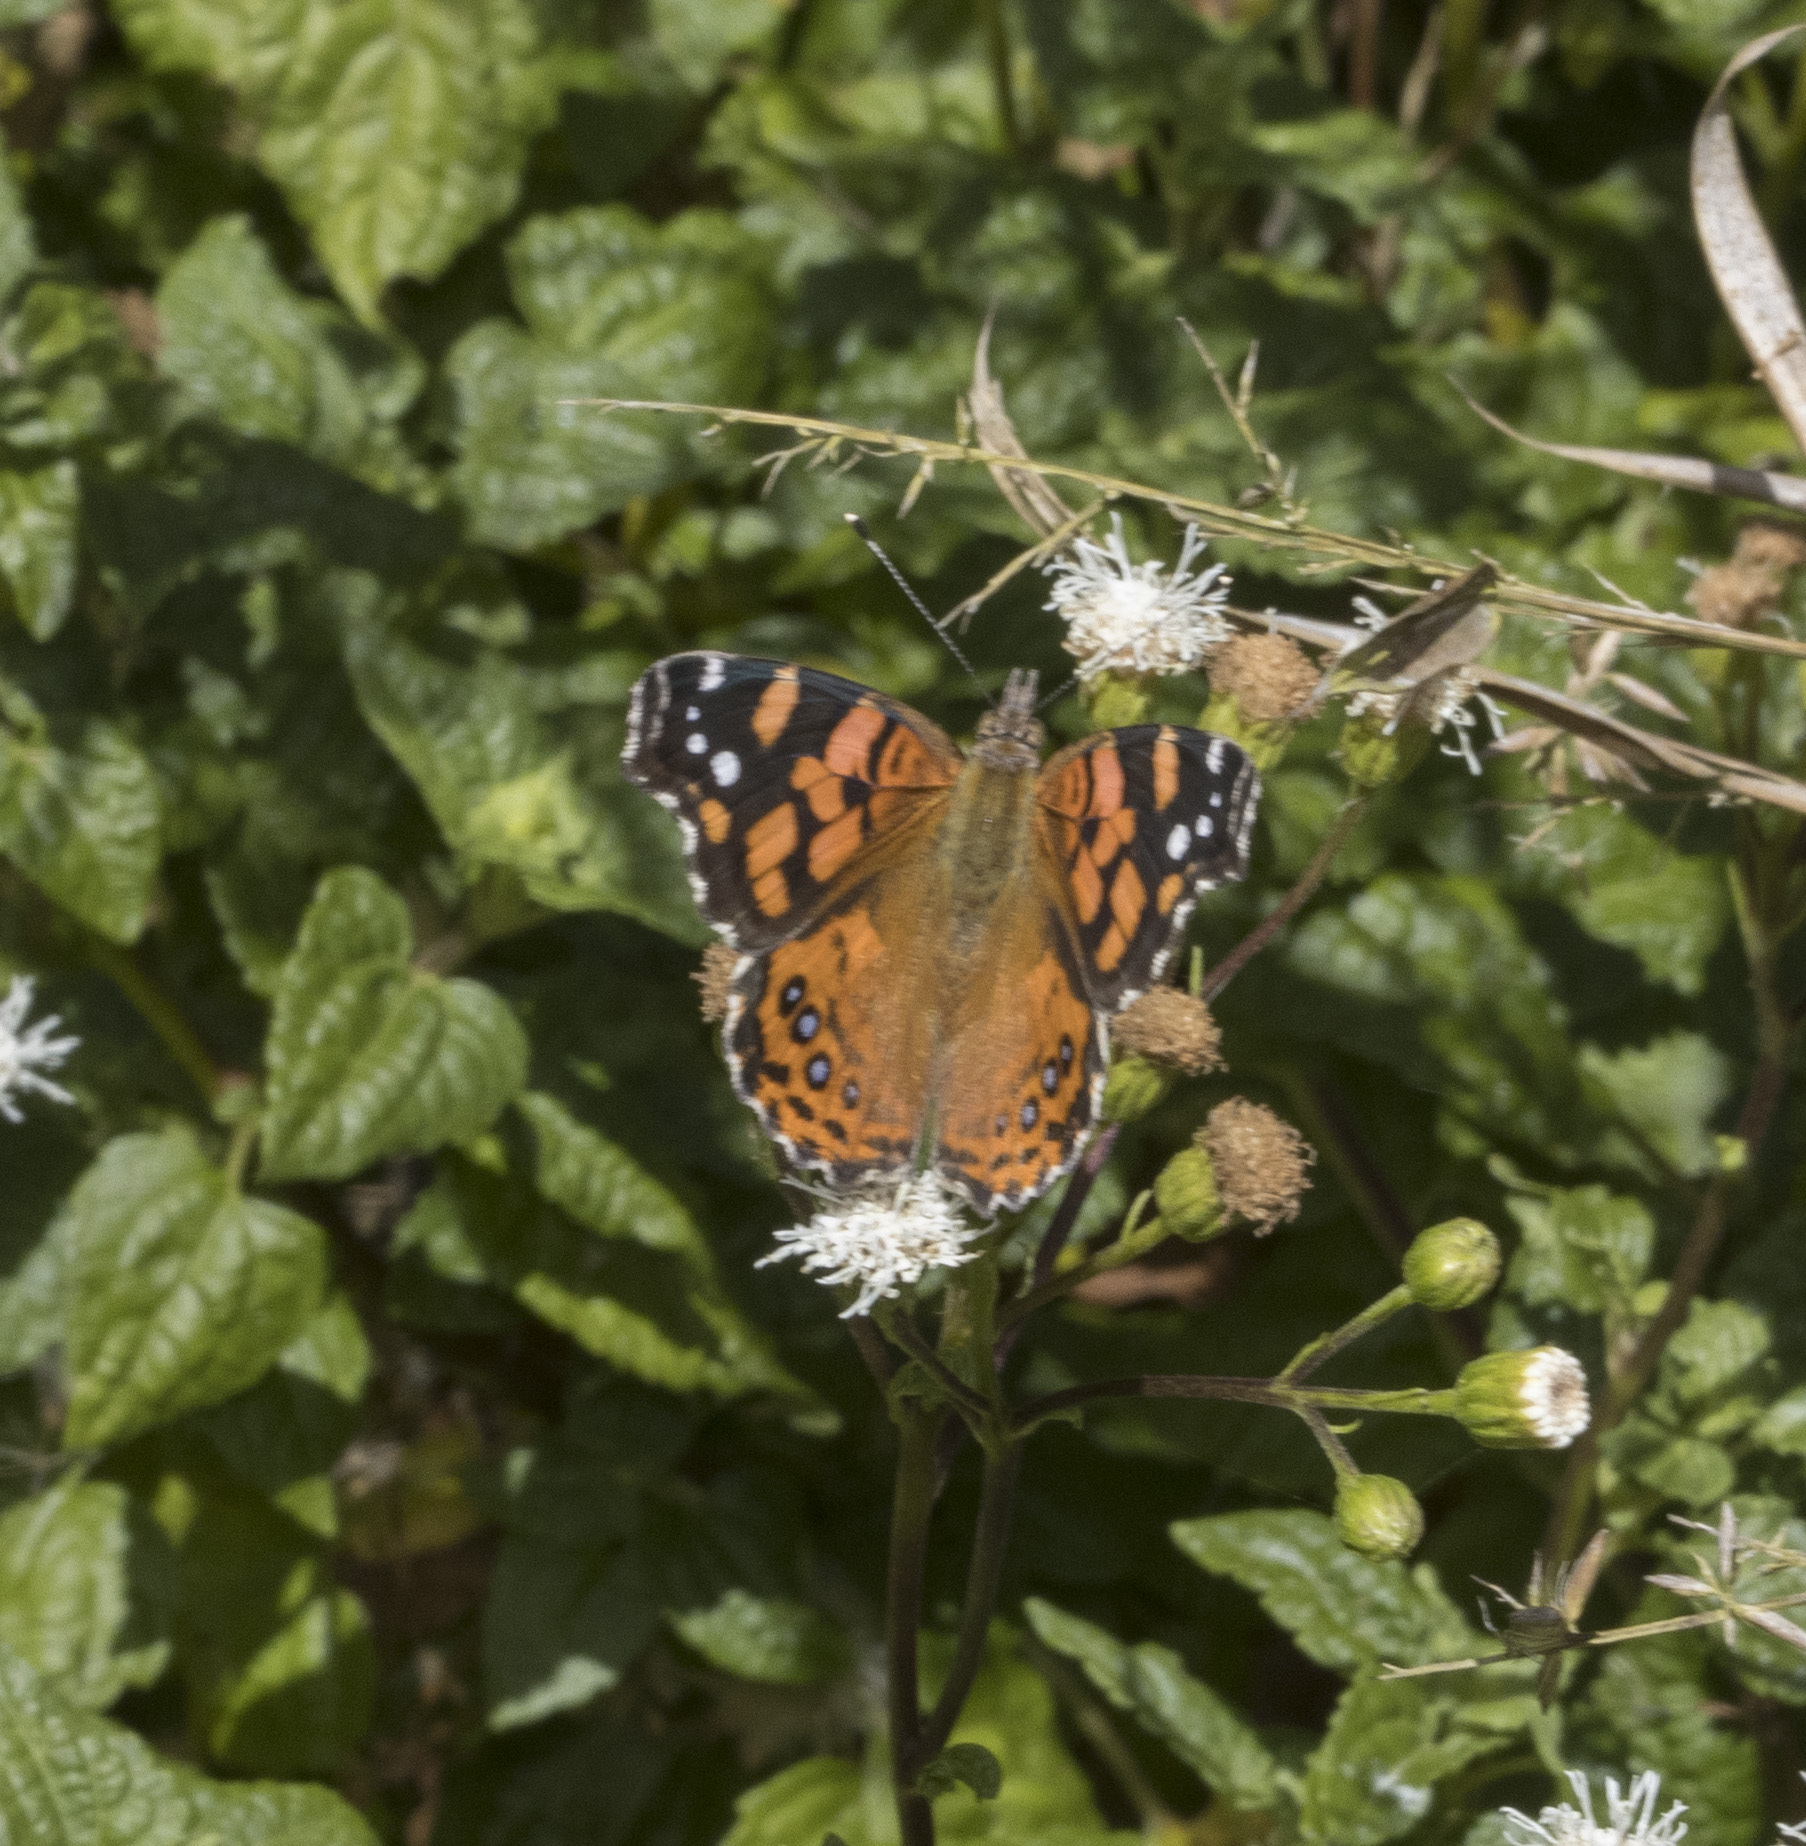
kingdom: Animalia
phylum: Arthropoda
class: Insecta
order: Lepidoptera
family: Nymphalidae
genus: Vanessa
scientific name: Vanessa carye
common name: Subtropical lady
